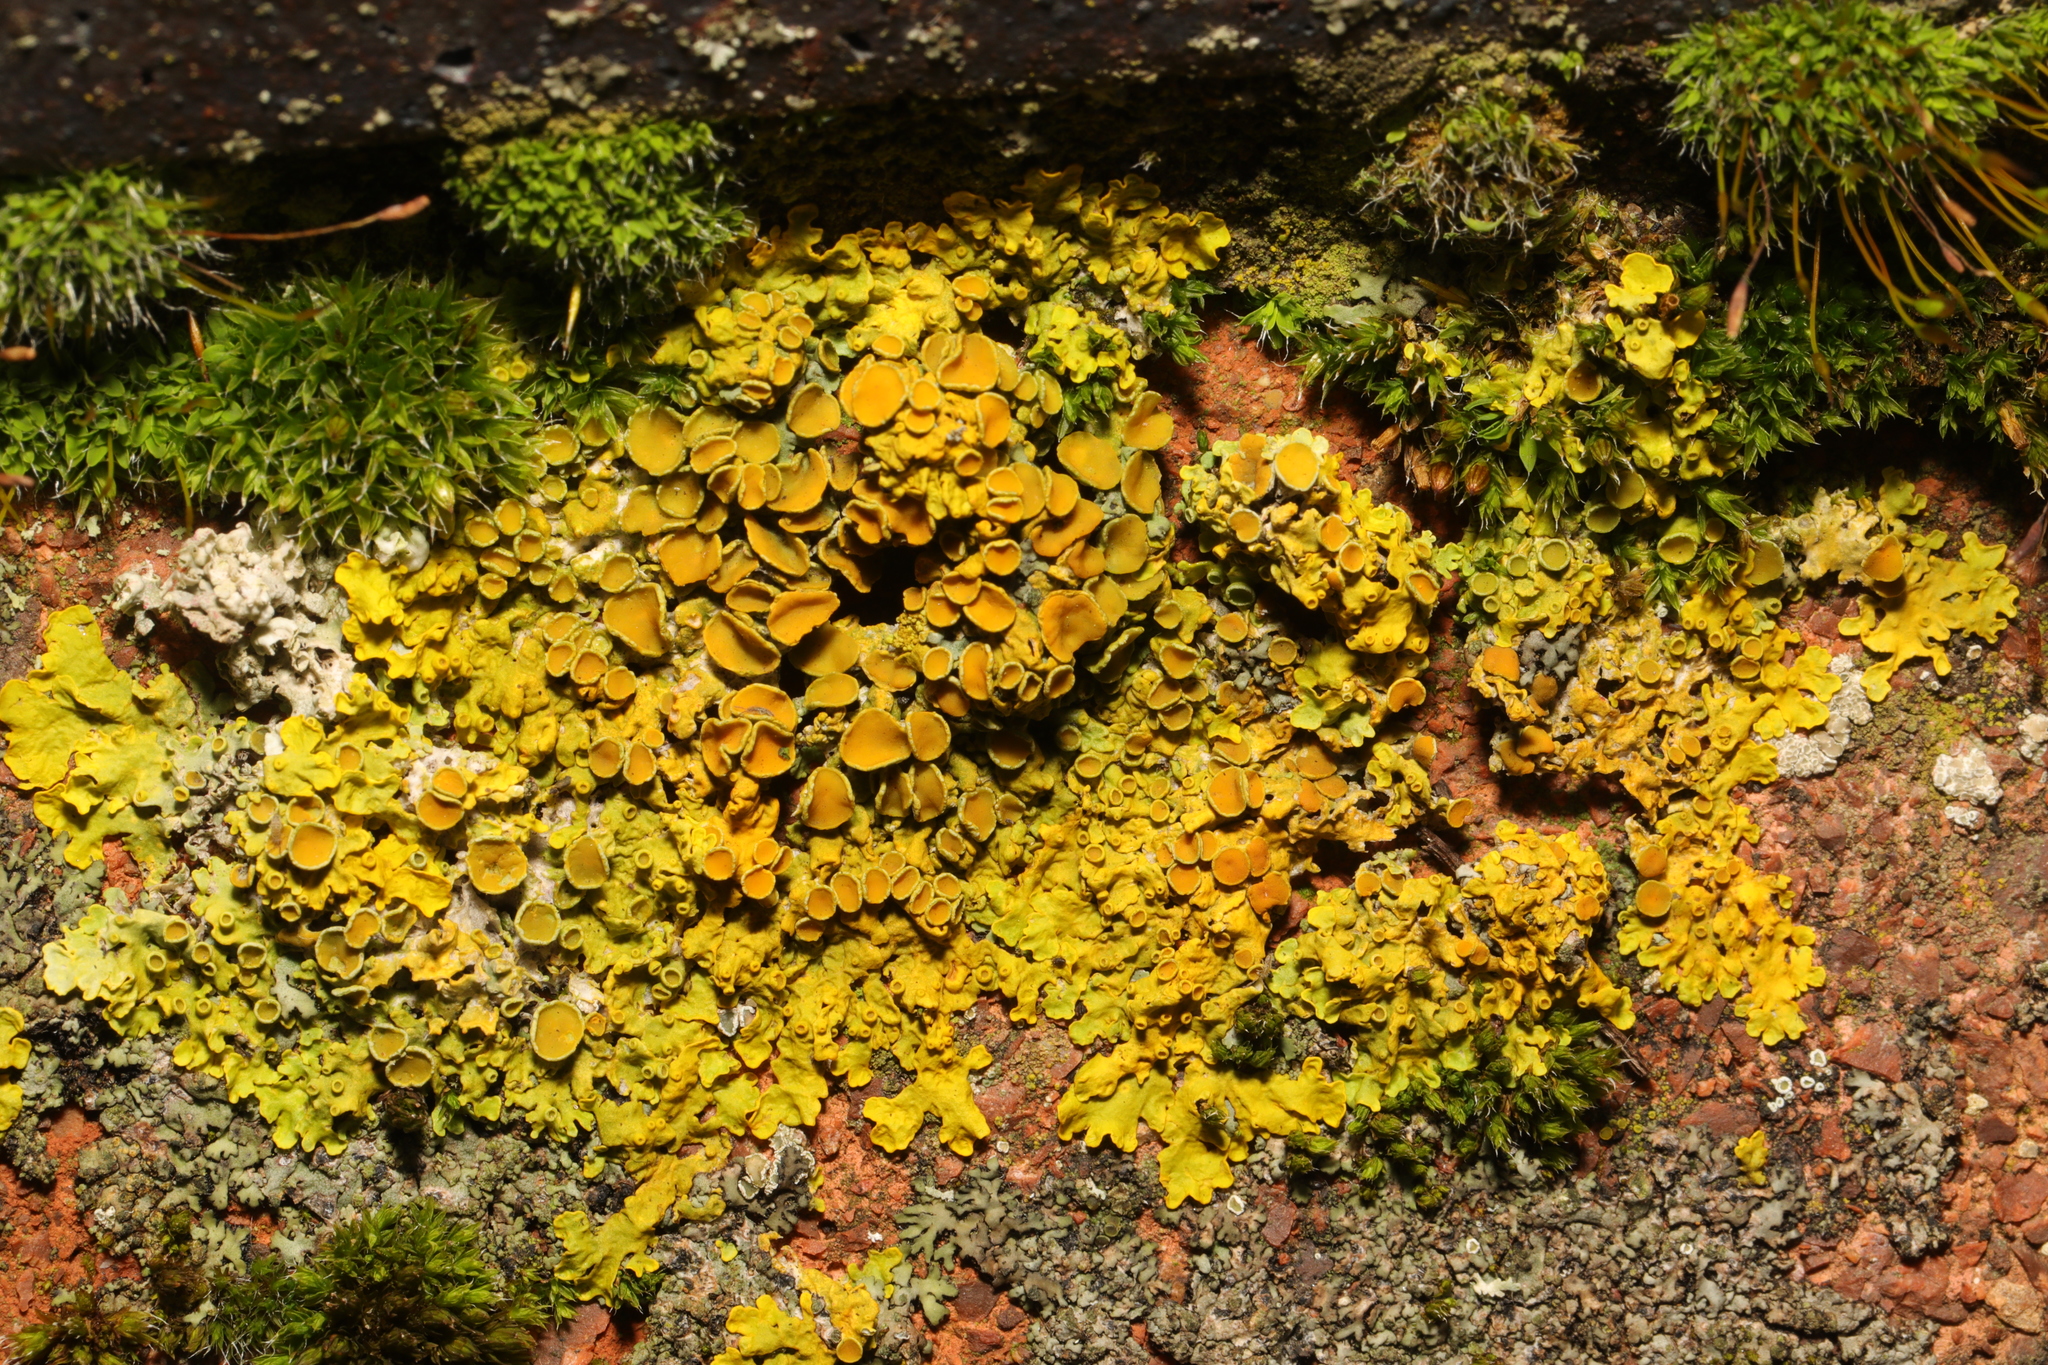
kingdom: Fungi
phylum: Ascomycota
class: Lecanoromycetes
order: Teloschistales
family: Teloschistaceae
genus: Xanthoria
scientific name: Xanthoria parietina
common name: Common orange lichen
